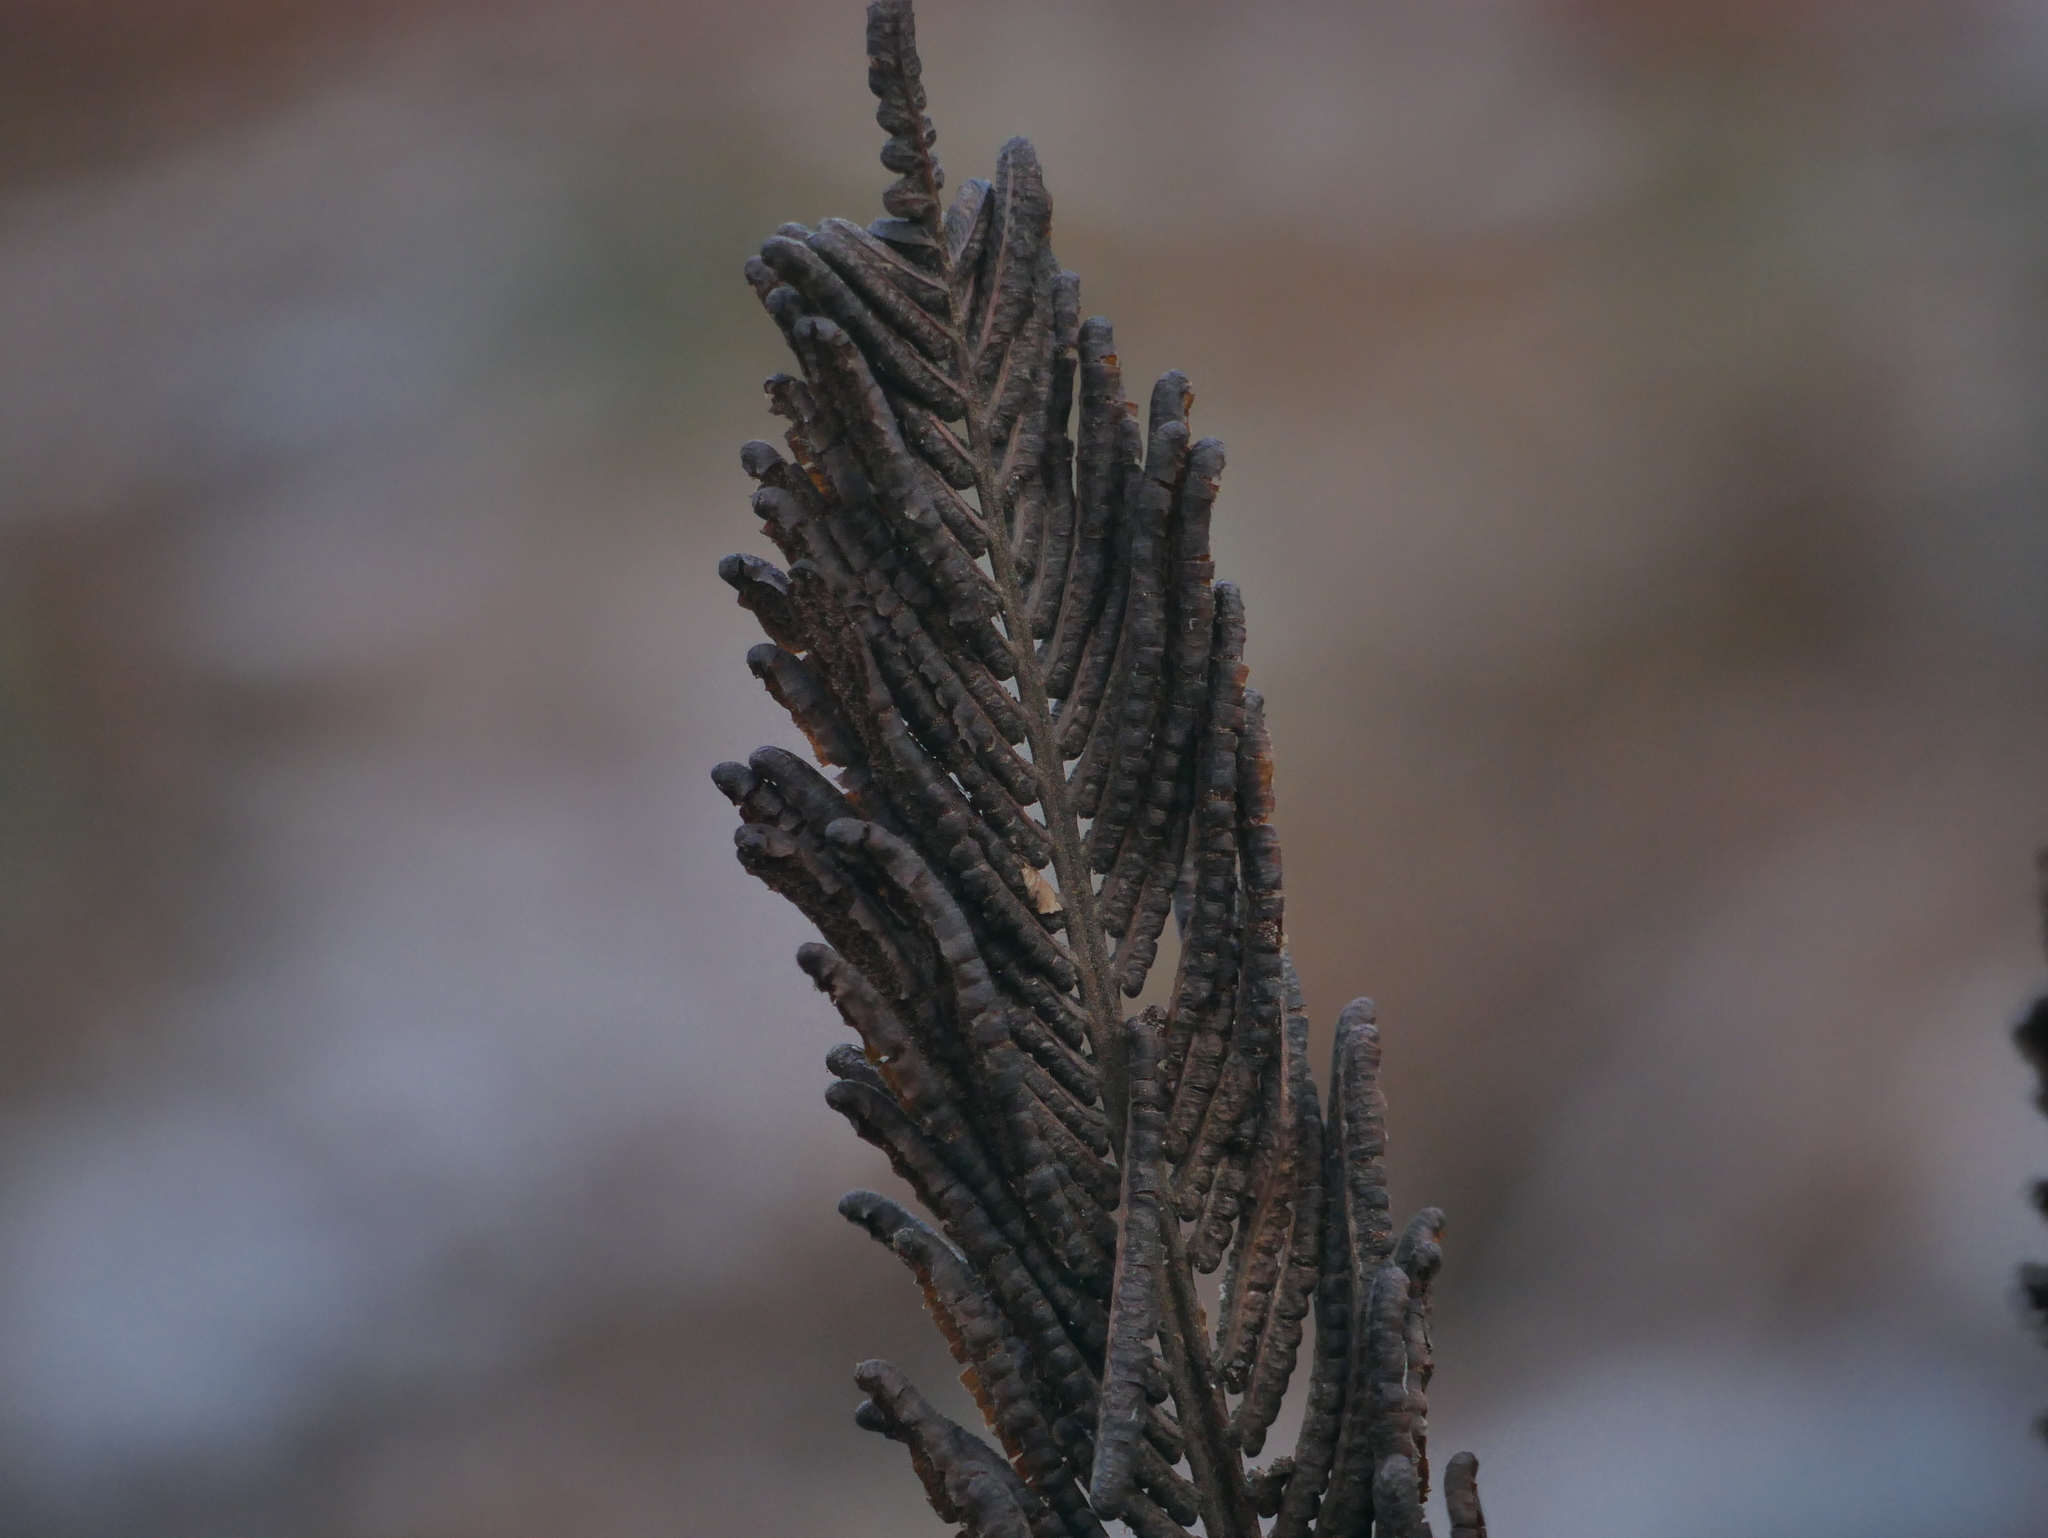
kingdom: Plantae
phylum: Tracheophyta
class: Polypodiopsida
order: Polypodiales
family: Onocleaceae
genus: Matteuccia
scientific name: Matteuccia struthiopteris
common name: Ostrich fern
